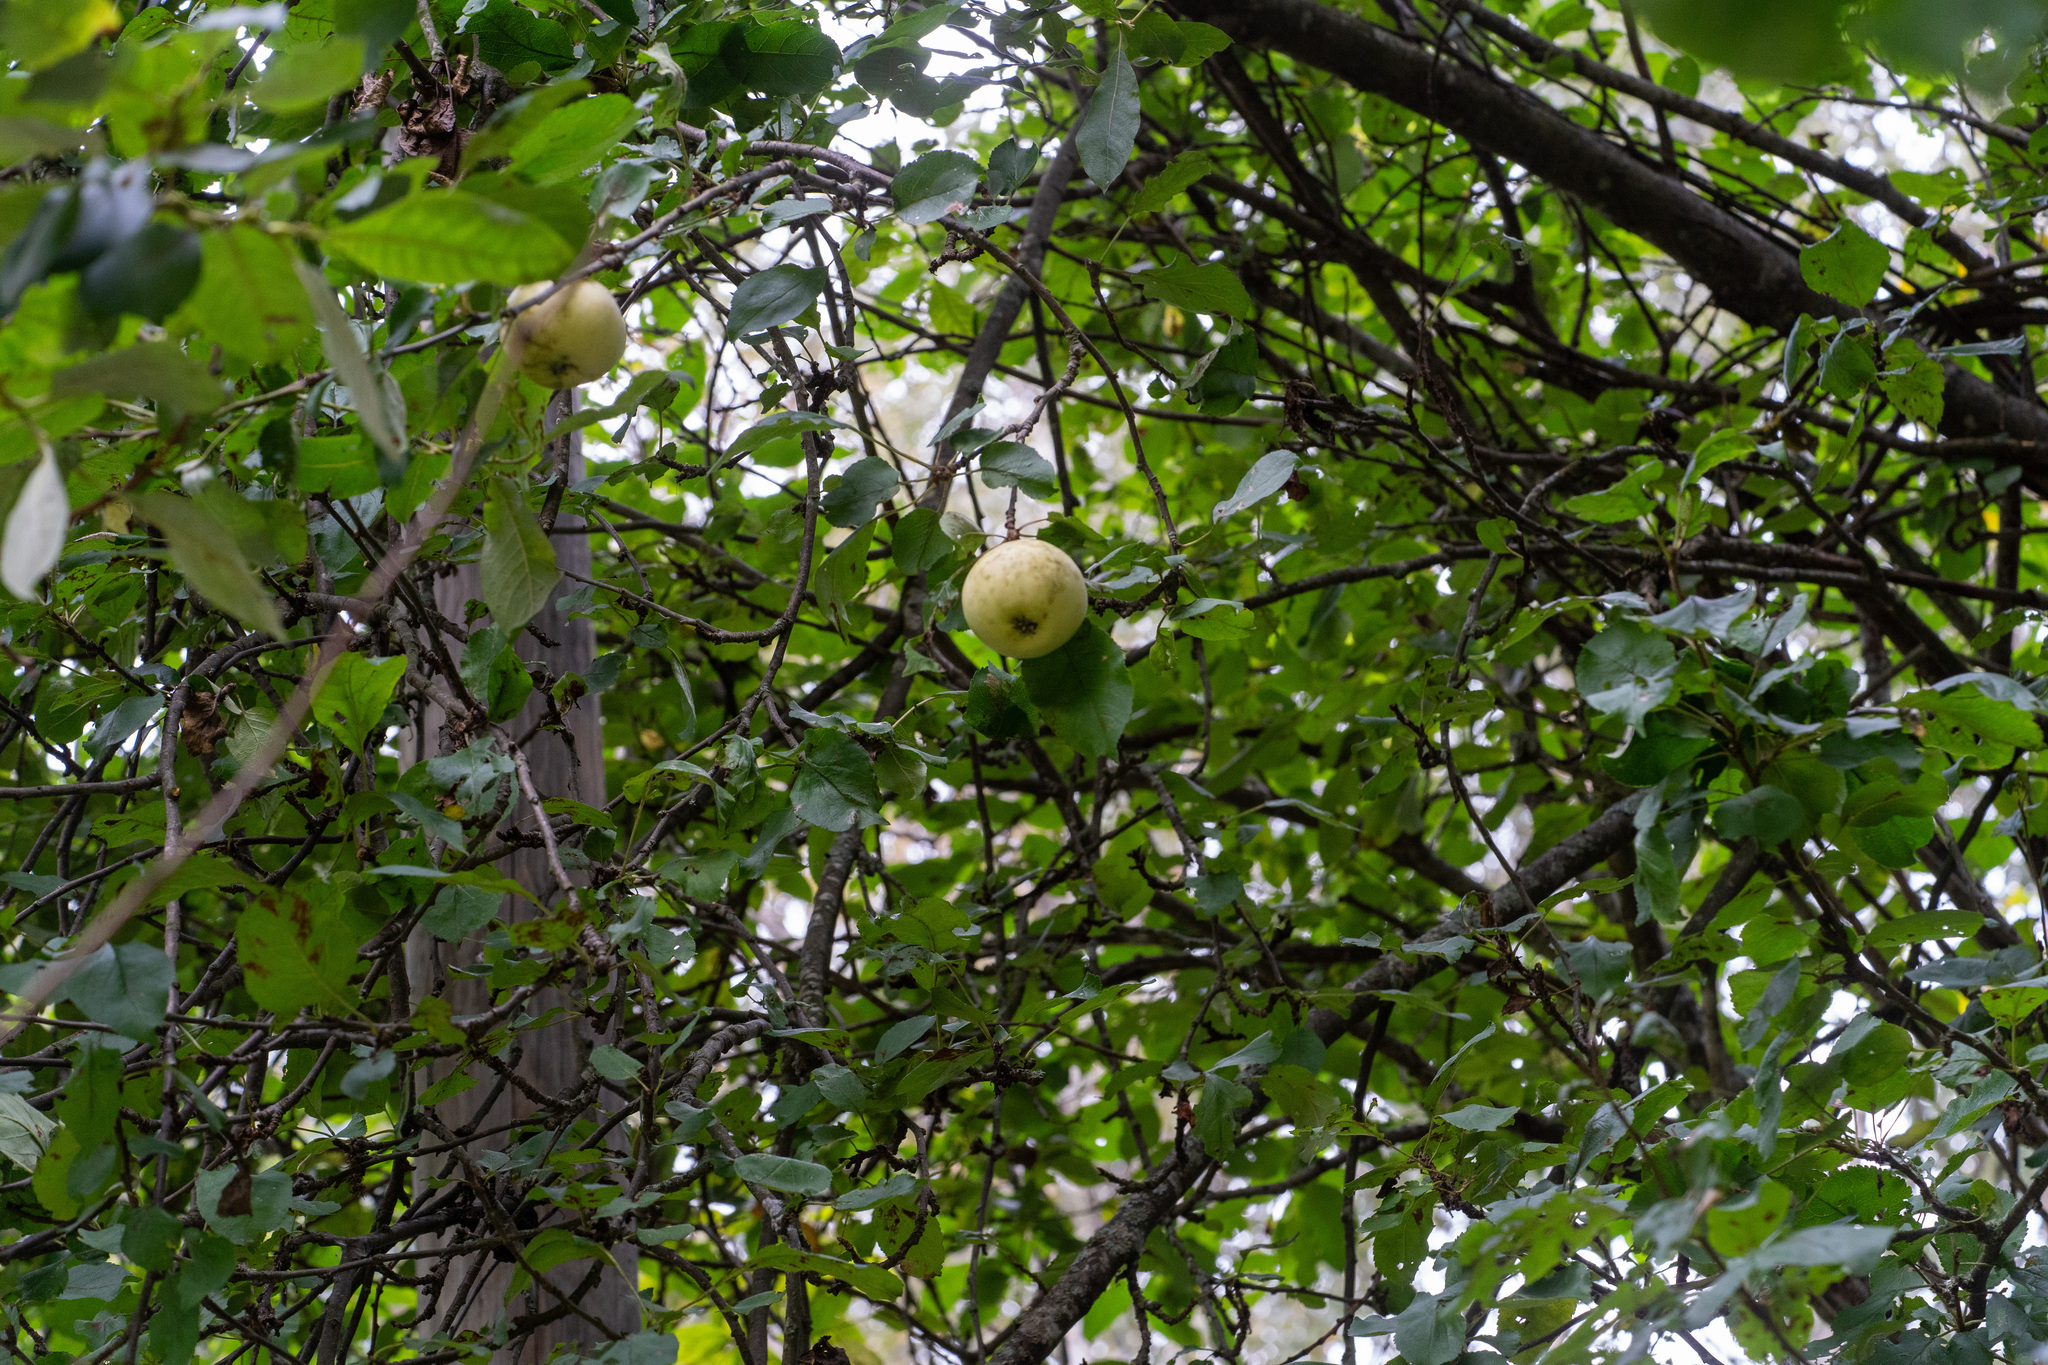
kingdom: Plantae
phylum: Tracheophyta
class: Magnoliopsida
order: Rosales
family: Rosaceae
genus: Malus
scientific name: Malus domestica
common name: Apple
